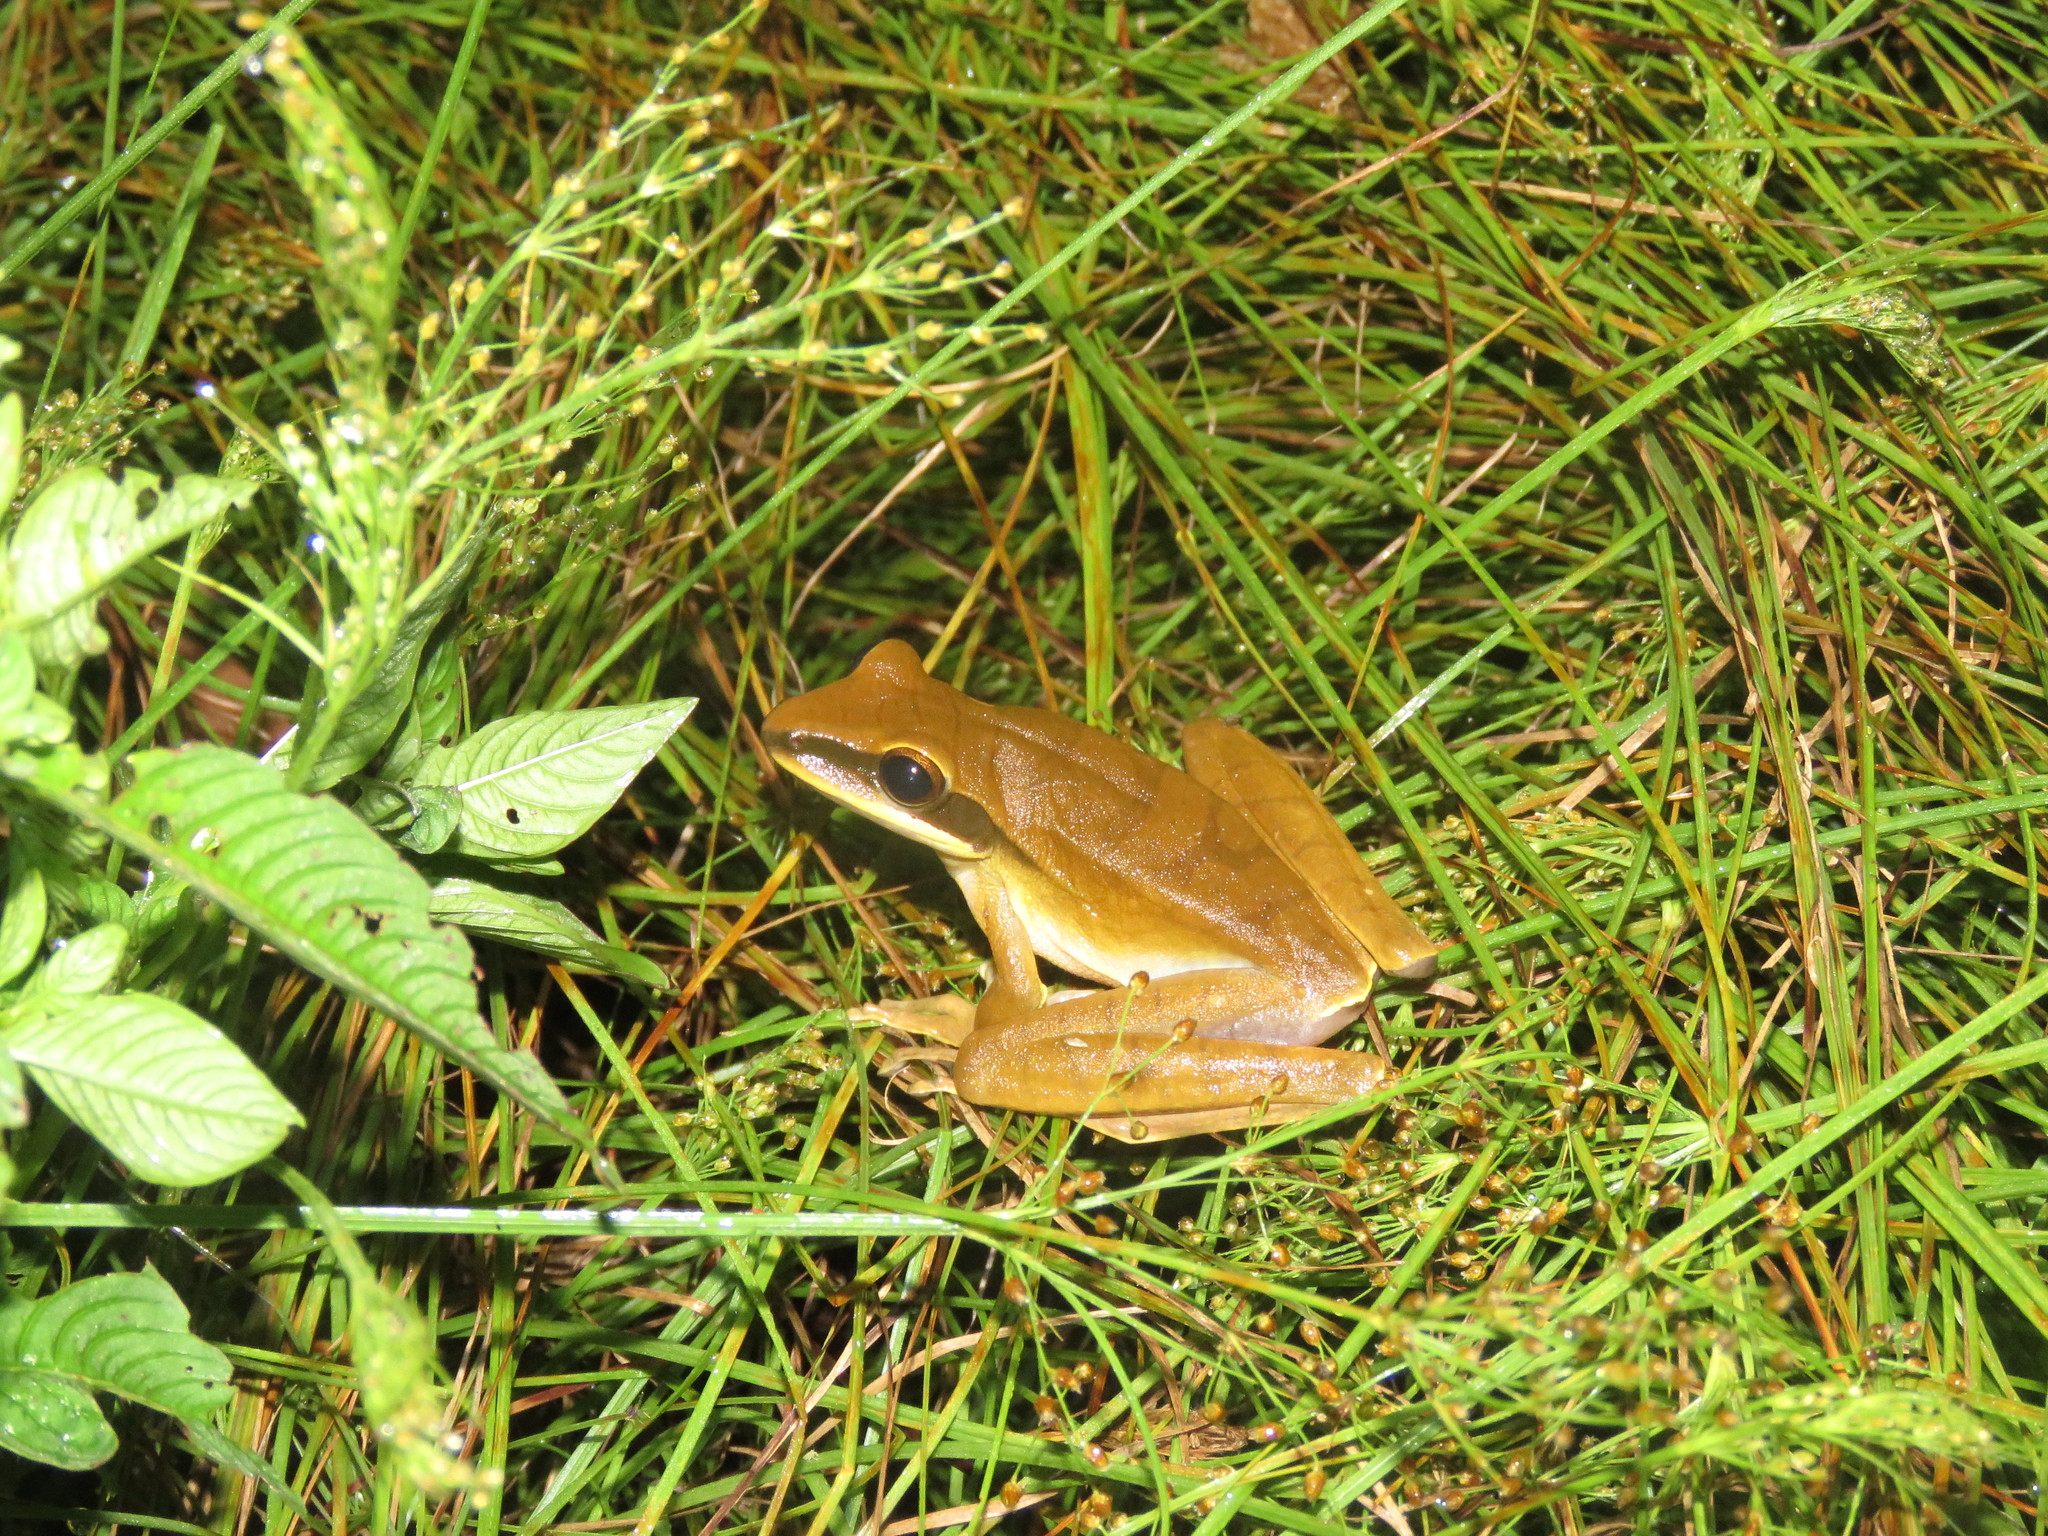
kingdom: Animalia
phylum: Chordata
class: Amphibia
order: Anura
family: Hylidae
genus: Boana
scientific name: Boana lanciformis
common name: Rana lanceolada commún
